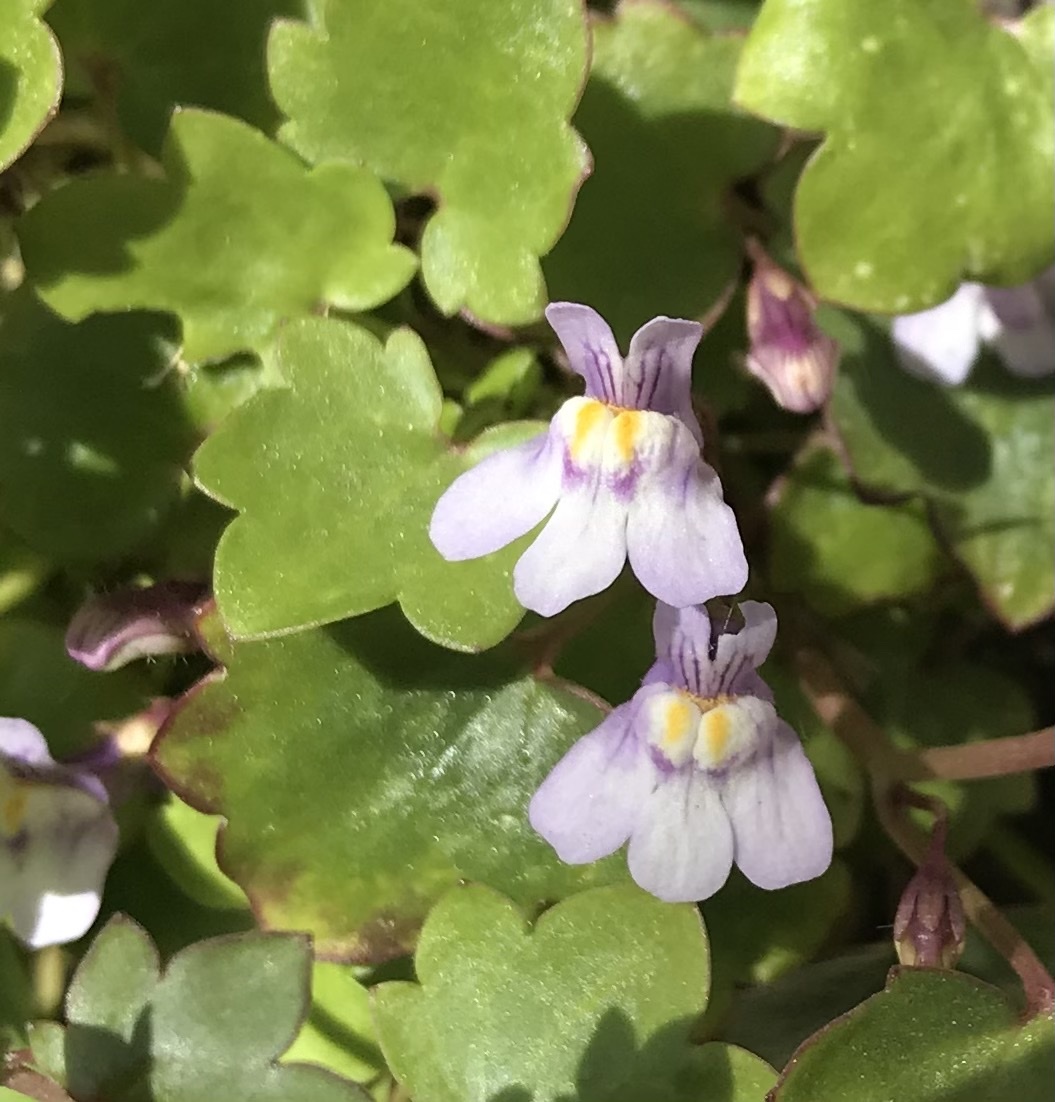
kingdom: Plantae
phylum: Tracheophyta
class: Magnoliopsida
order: Lamiales
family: Plantaginaceae
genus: Cymbalaria
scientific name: Cymbalaria muralis
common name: Ivy-leaved toadflax
